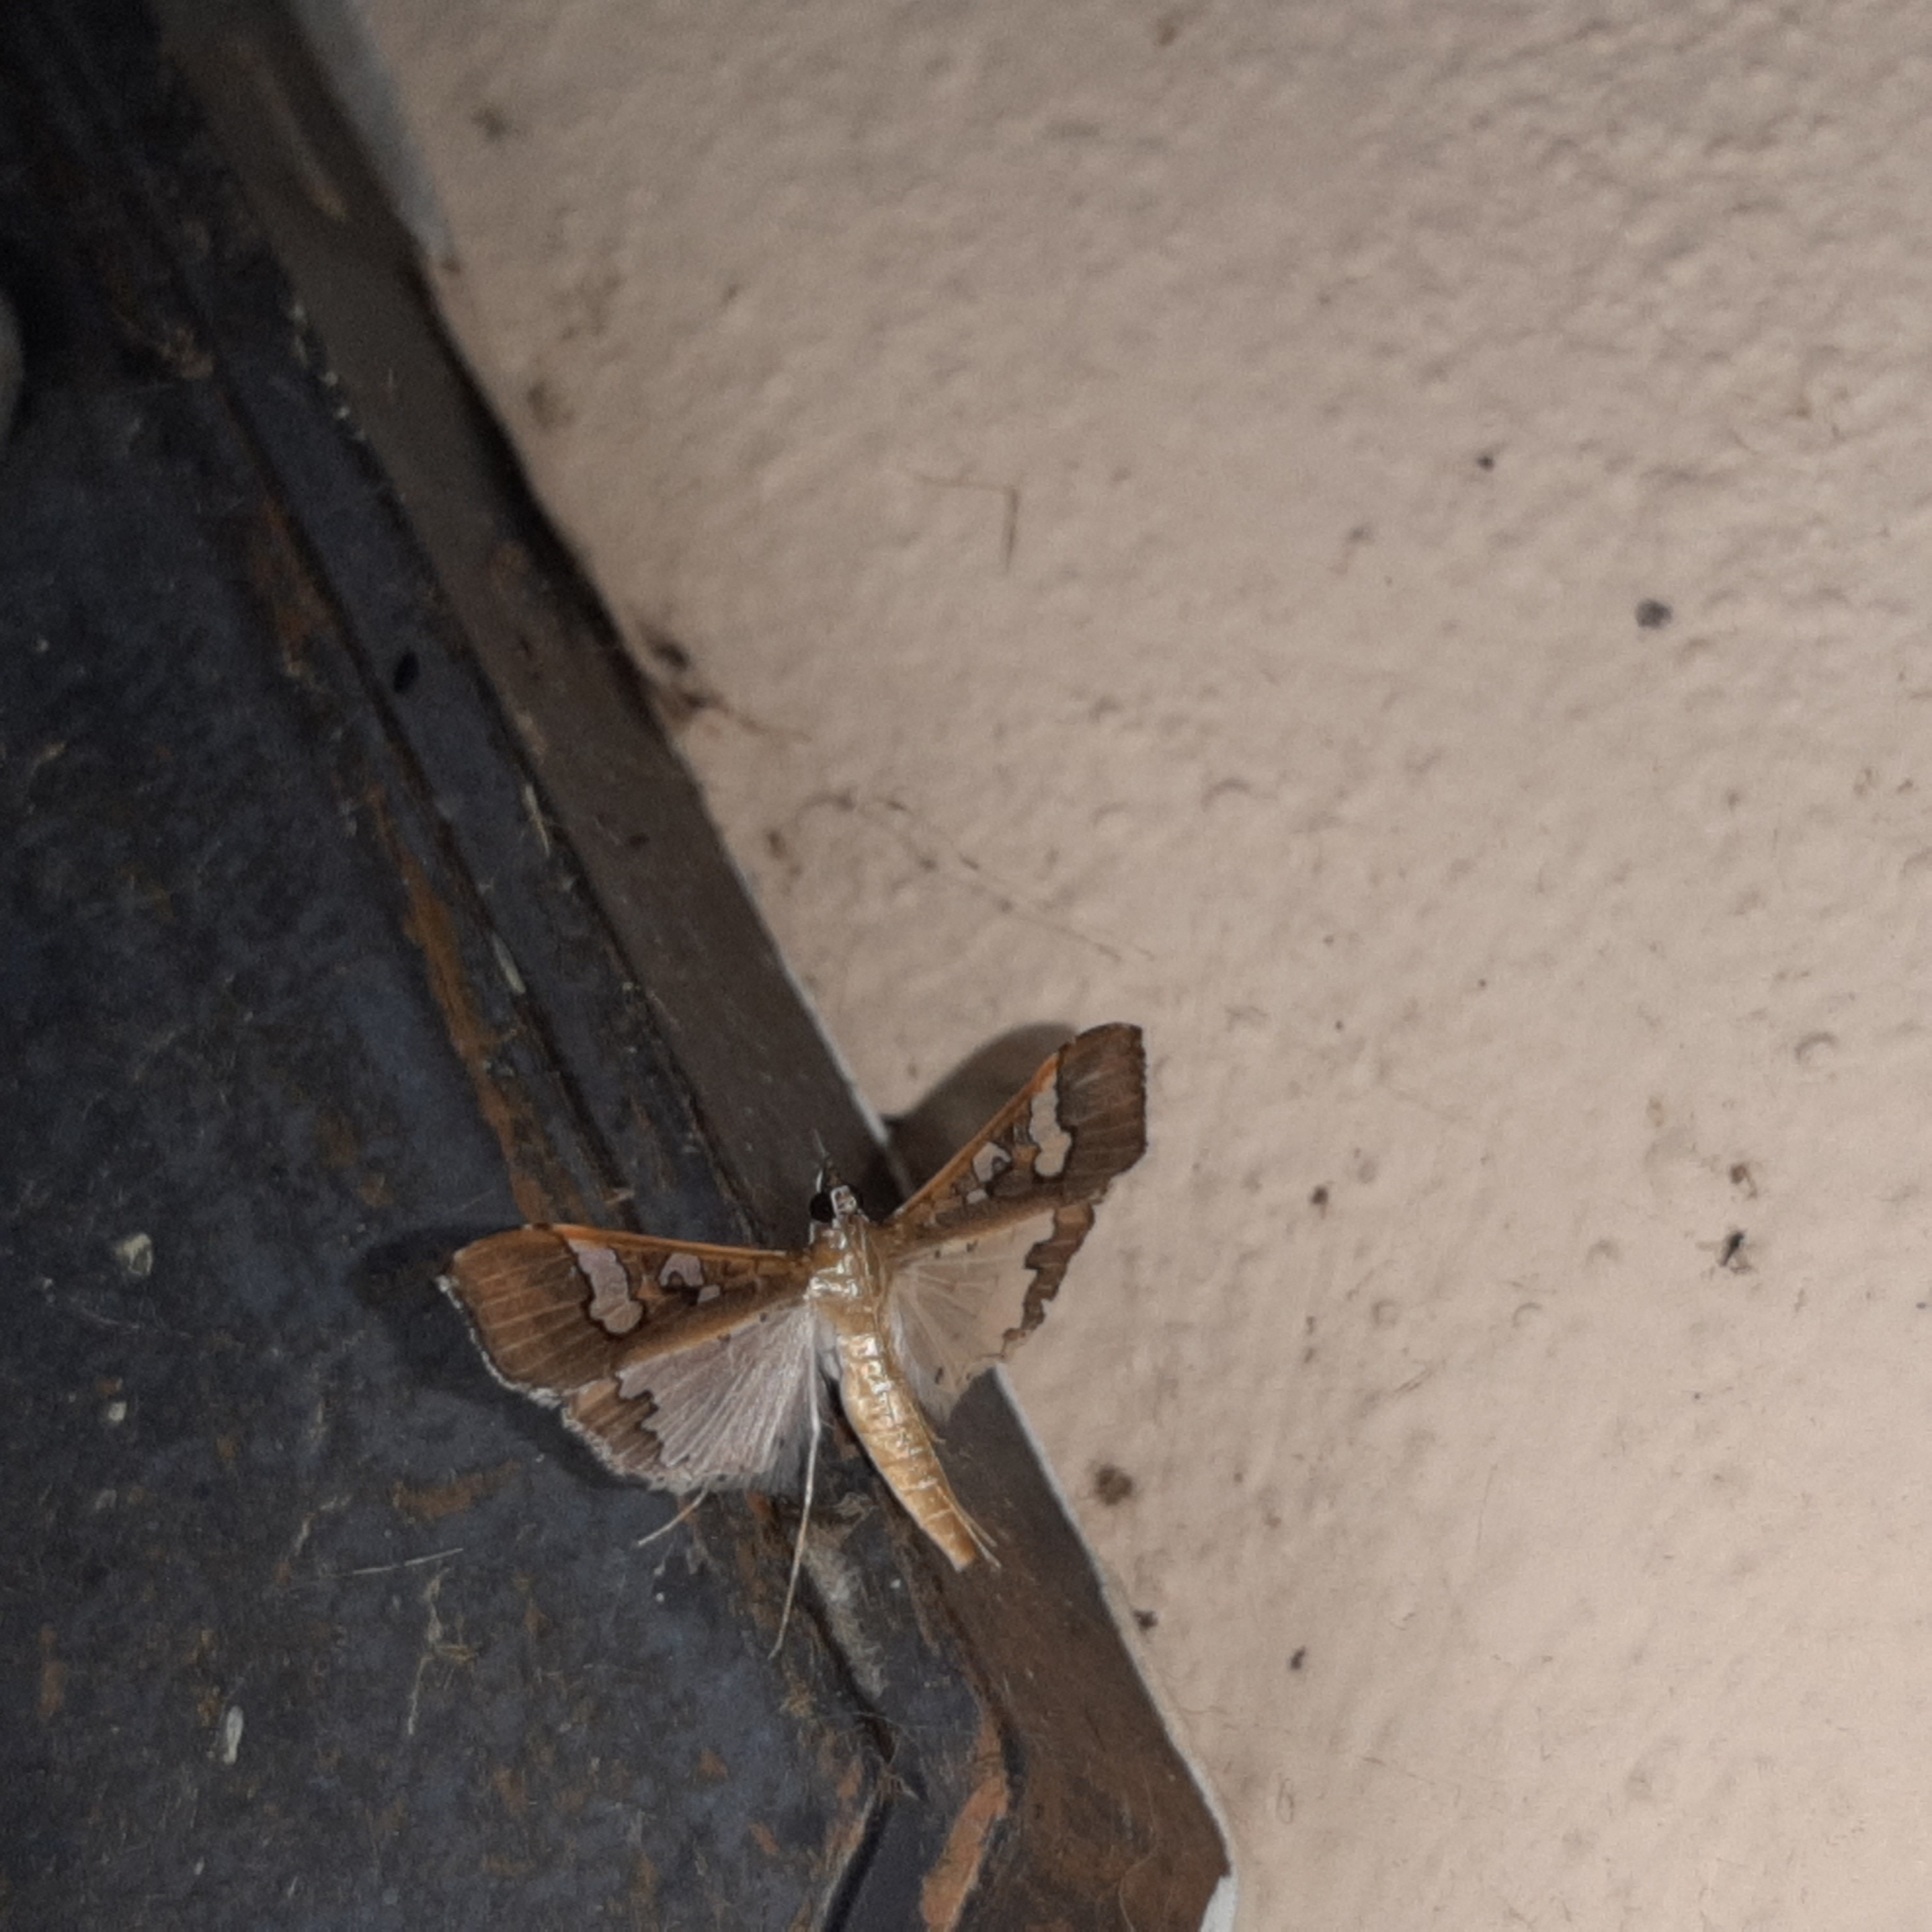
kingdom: Animalia
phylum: Arthropoda
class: Insecta
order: Lepidoptera
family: Crambidae
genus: Maruca
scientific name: Maruca vitrata
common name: Maruca pod borer
